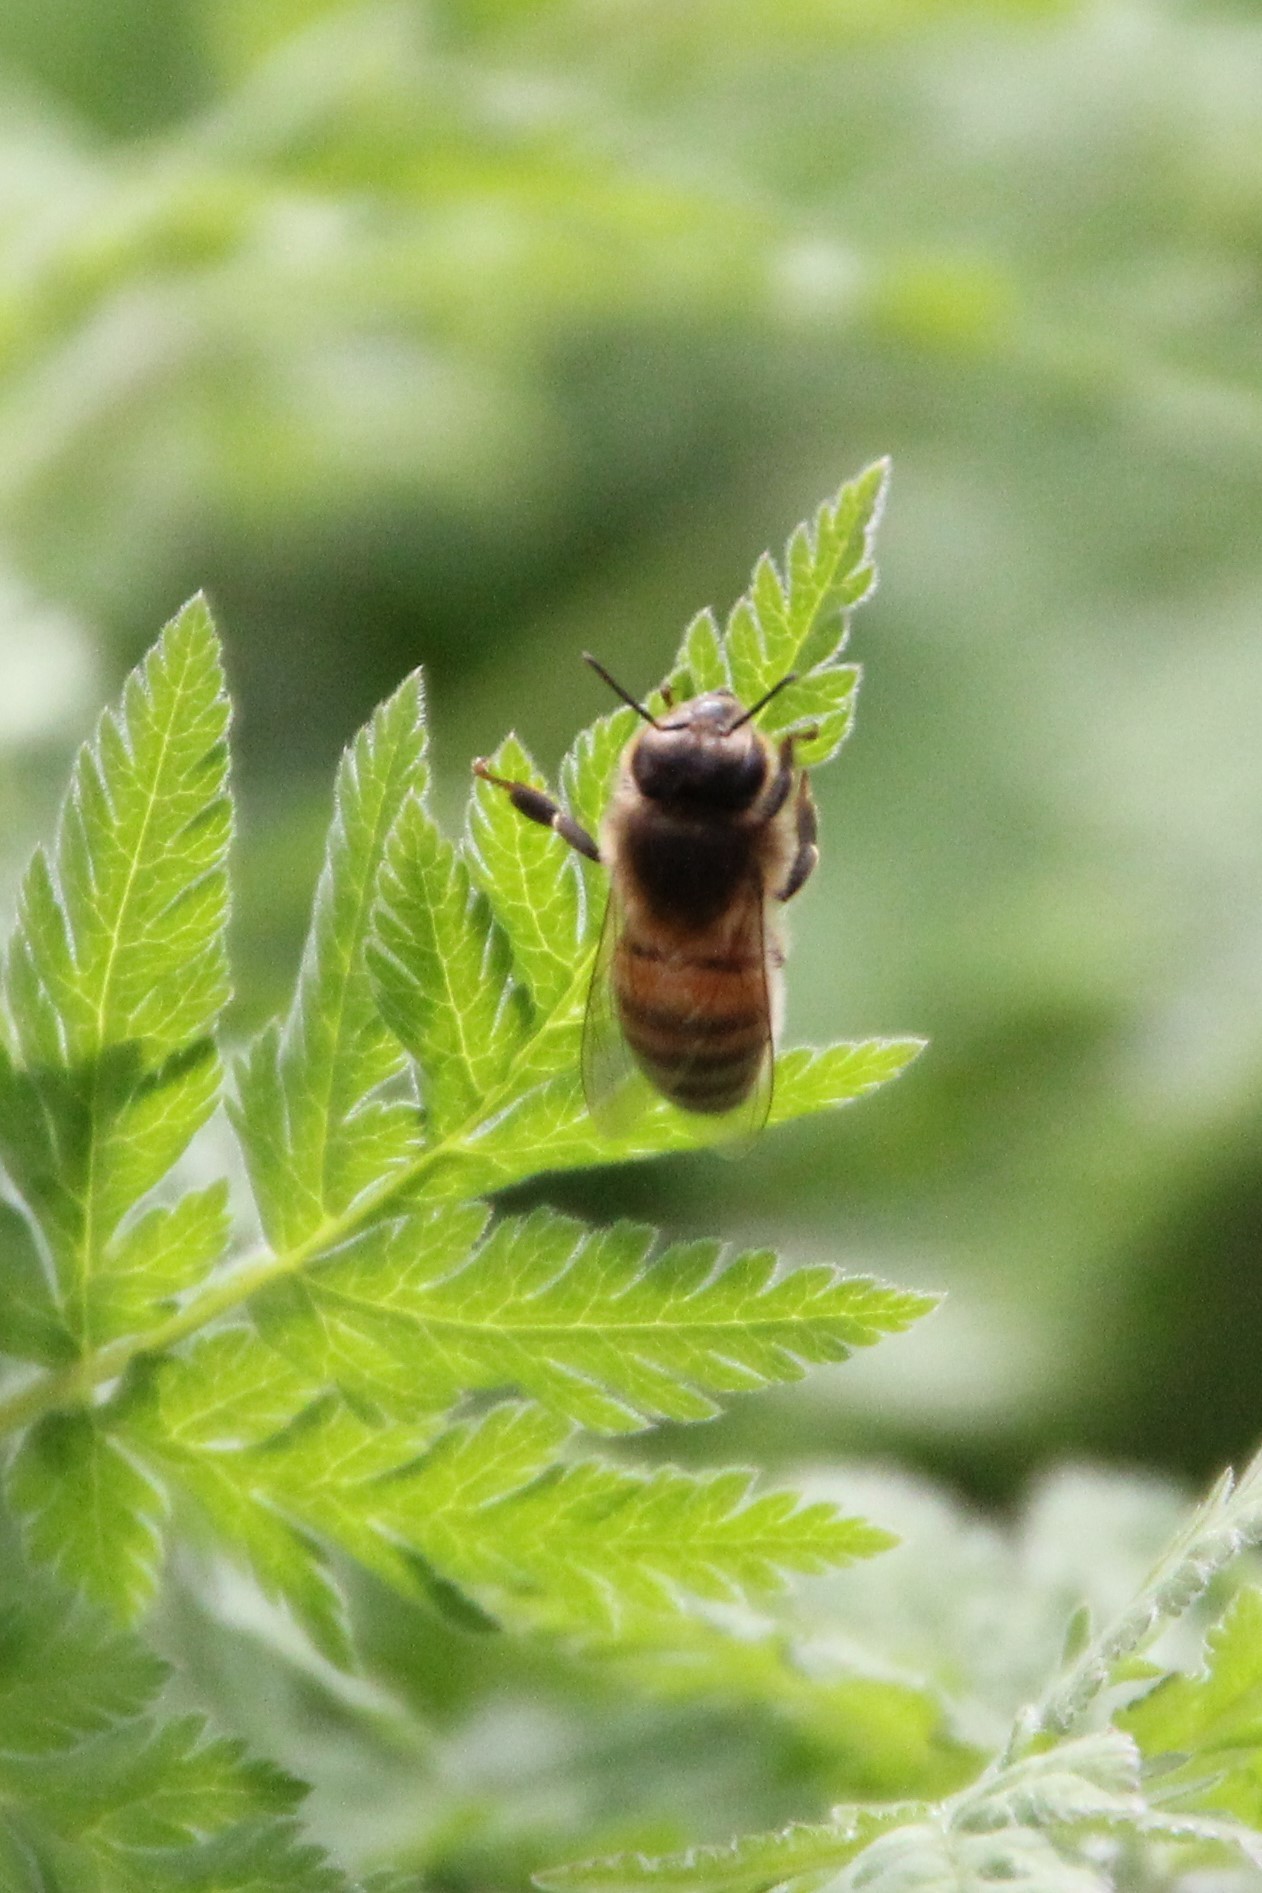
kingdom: Animalia
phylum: Arthropoda
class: Insecta
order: Hymenoptera
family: Apidae
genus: Apis
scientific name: Apis mellifera
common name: Honey bee
